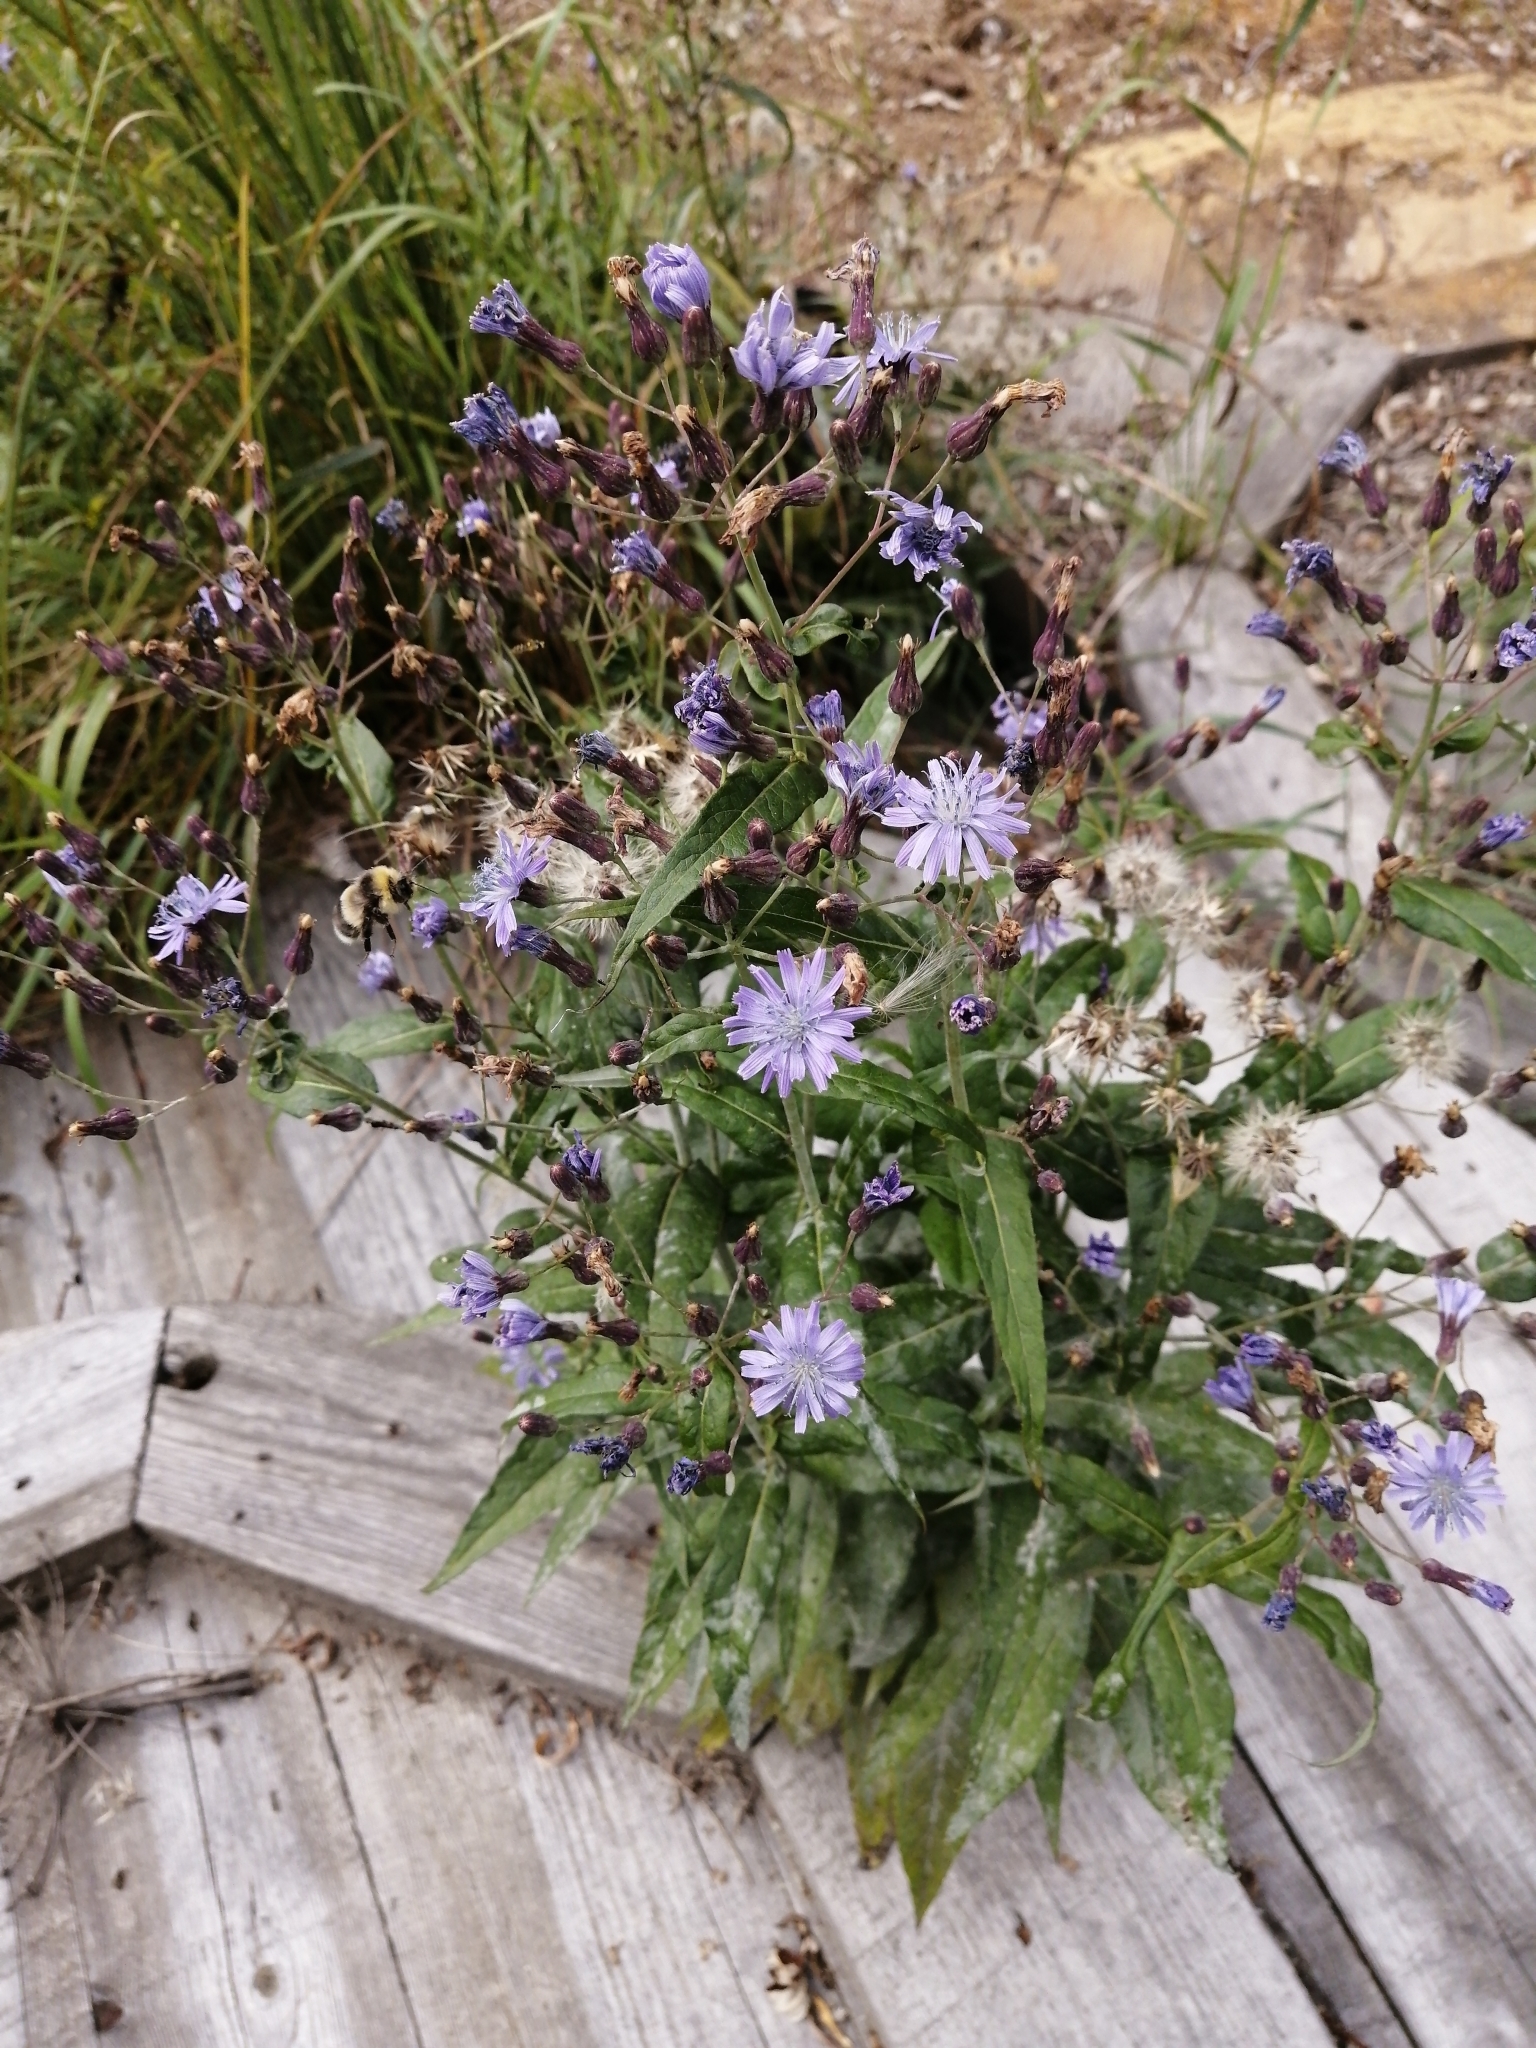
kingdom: Plantae
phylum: Tracheophyta
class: Magnoliopsida
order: Asterales
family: Asteraceae
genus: Lactuca
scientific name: Lactuca sibirica
